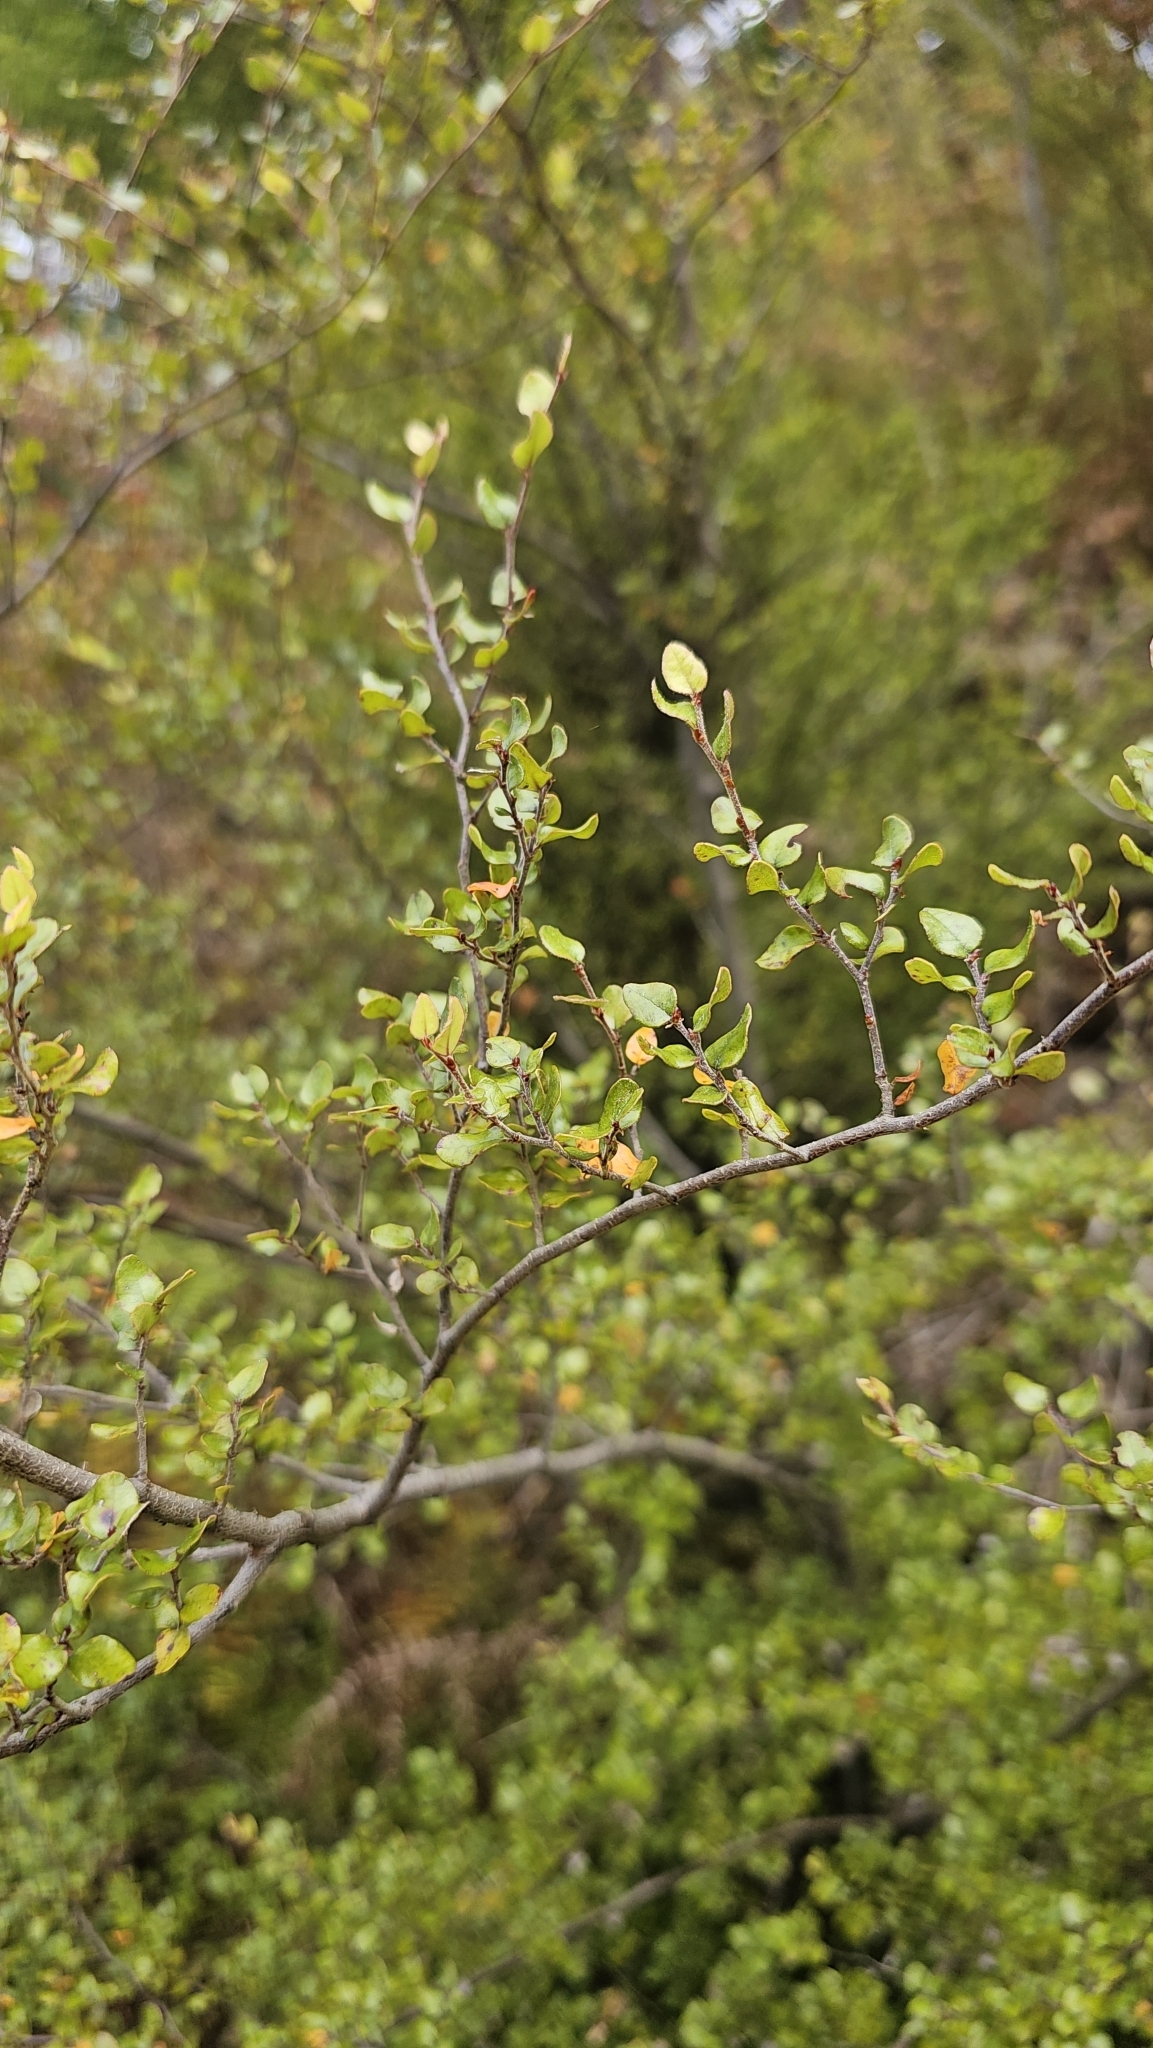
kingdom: Plantae
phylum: Tracheophyta
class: Magnoliopsida
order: Fagales
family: Nothofagaceae
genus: Nothofagus
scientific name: Nothofagus cliffortioides
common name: Mountain beech
